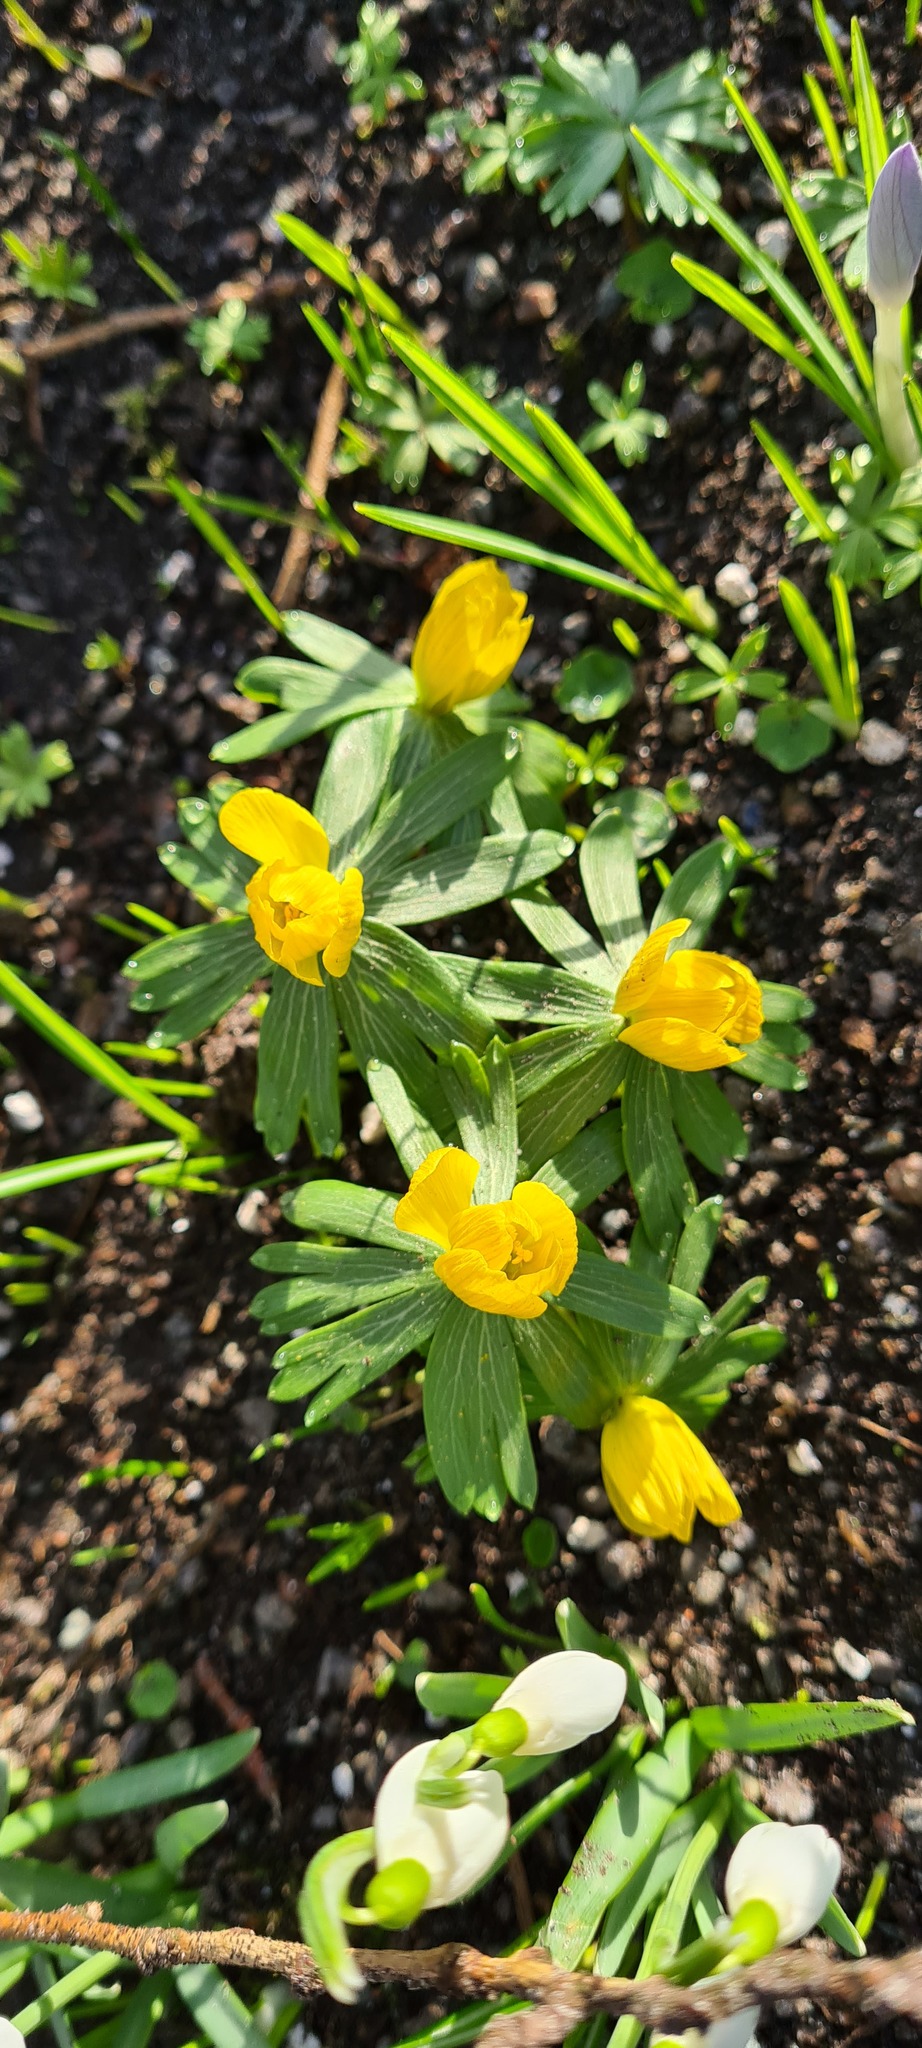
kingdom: Plantae
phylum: Tracheophyta
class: Magnoliopsida
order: Ranunculales
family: Ranunculaceae
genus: Eranthis
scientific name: Eranthis hyemalis
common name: Winter aconite
